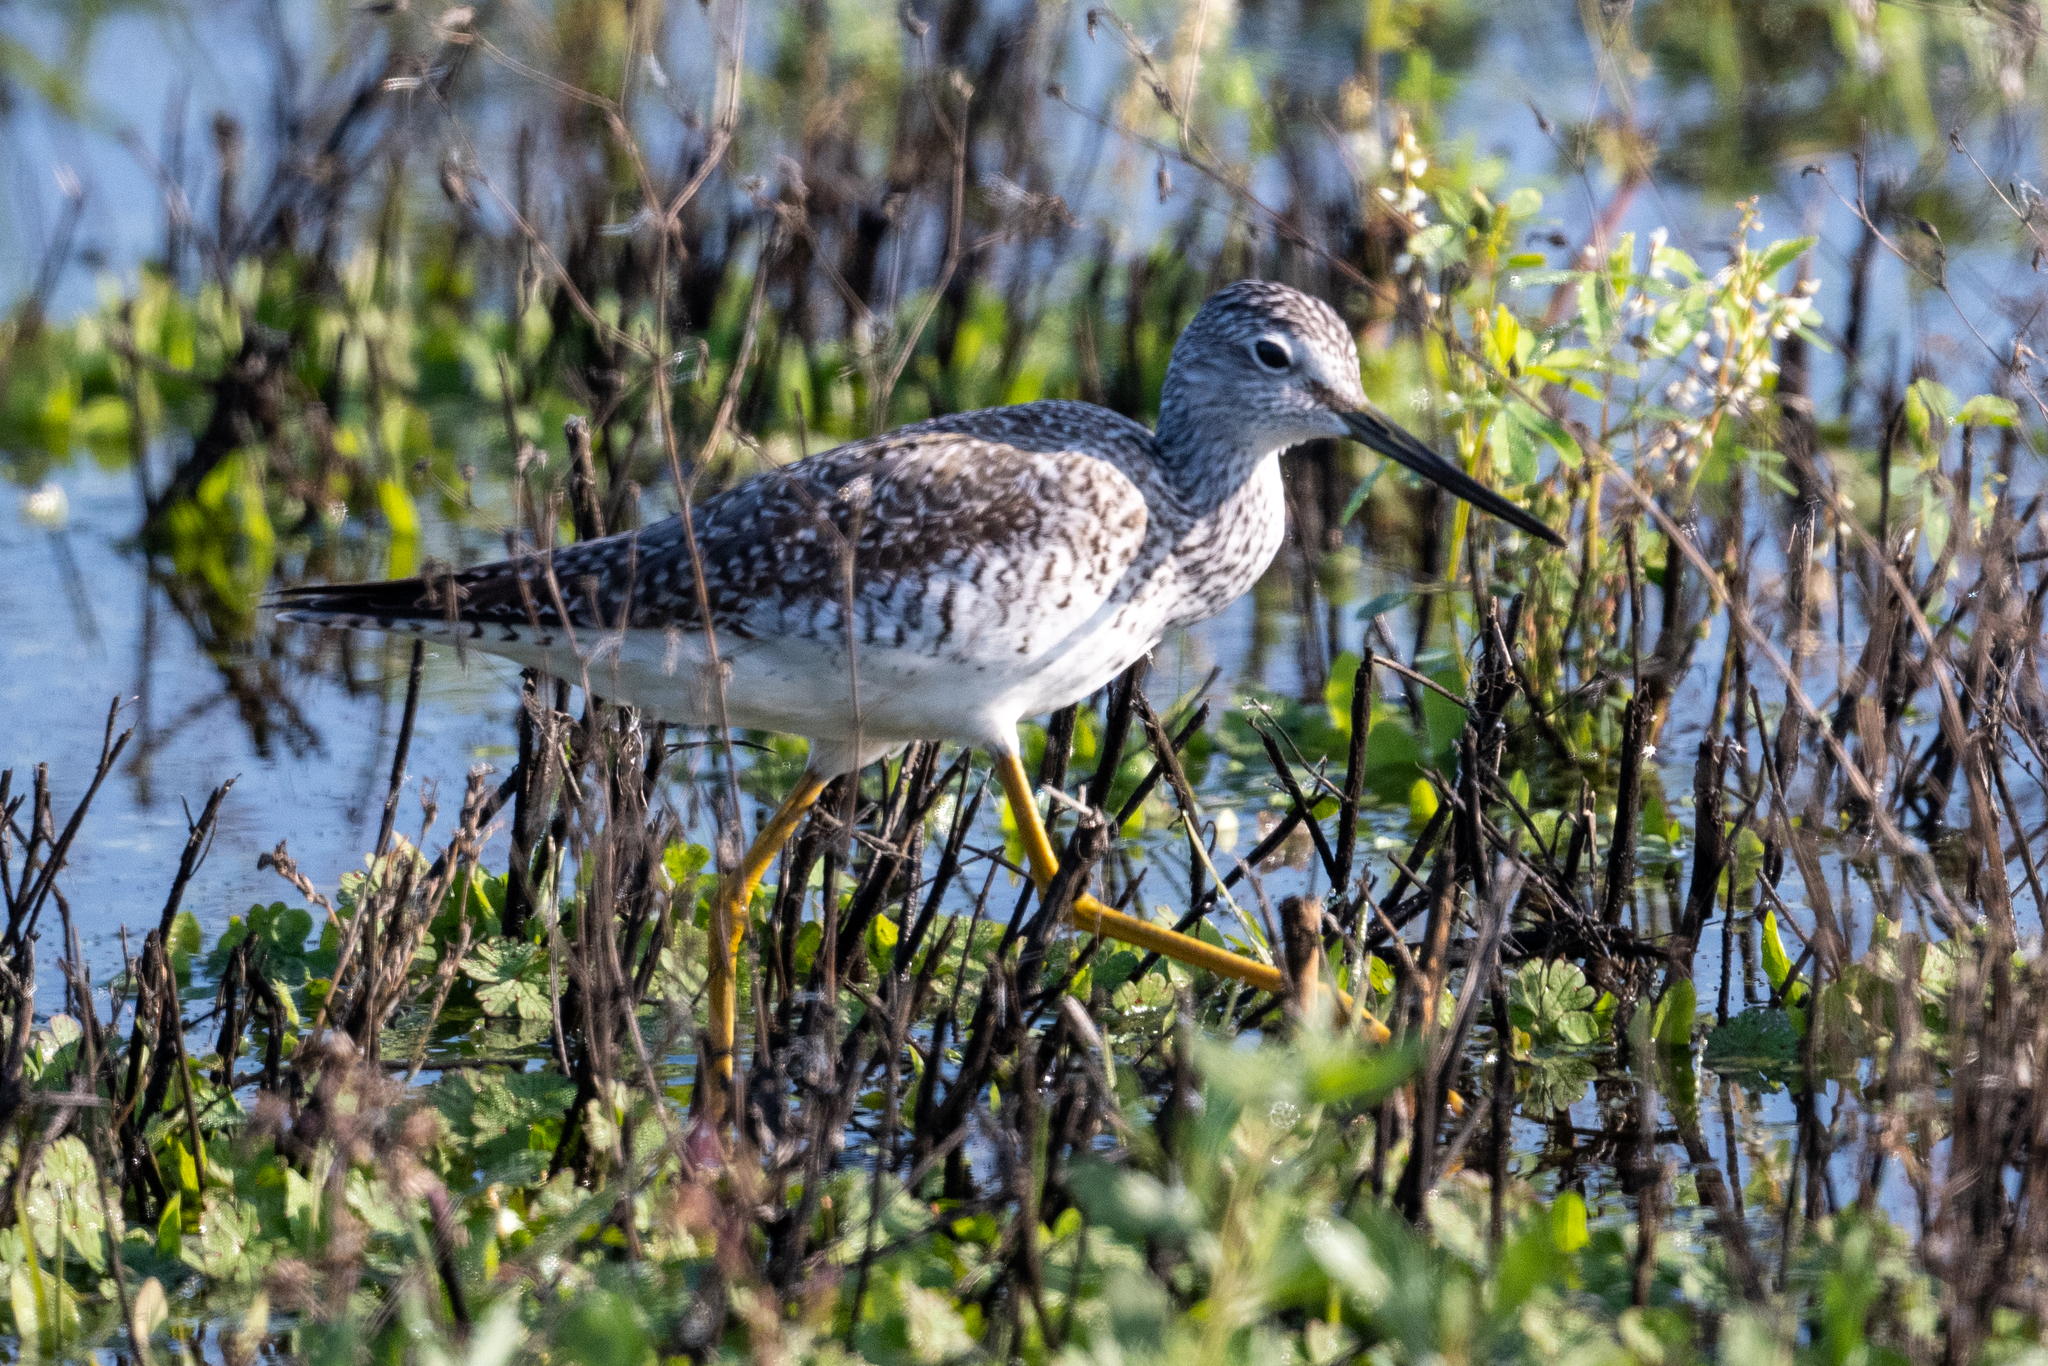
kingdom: Animalia
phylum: Chordata
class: Aves
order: Charadriiformes
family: Scolopacidae
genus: Tringa
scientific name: Tringa melanoleuca
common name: Greater yellowlegs
